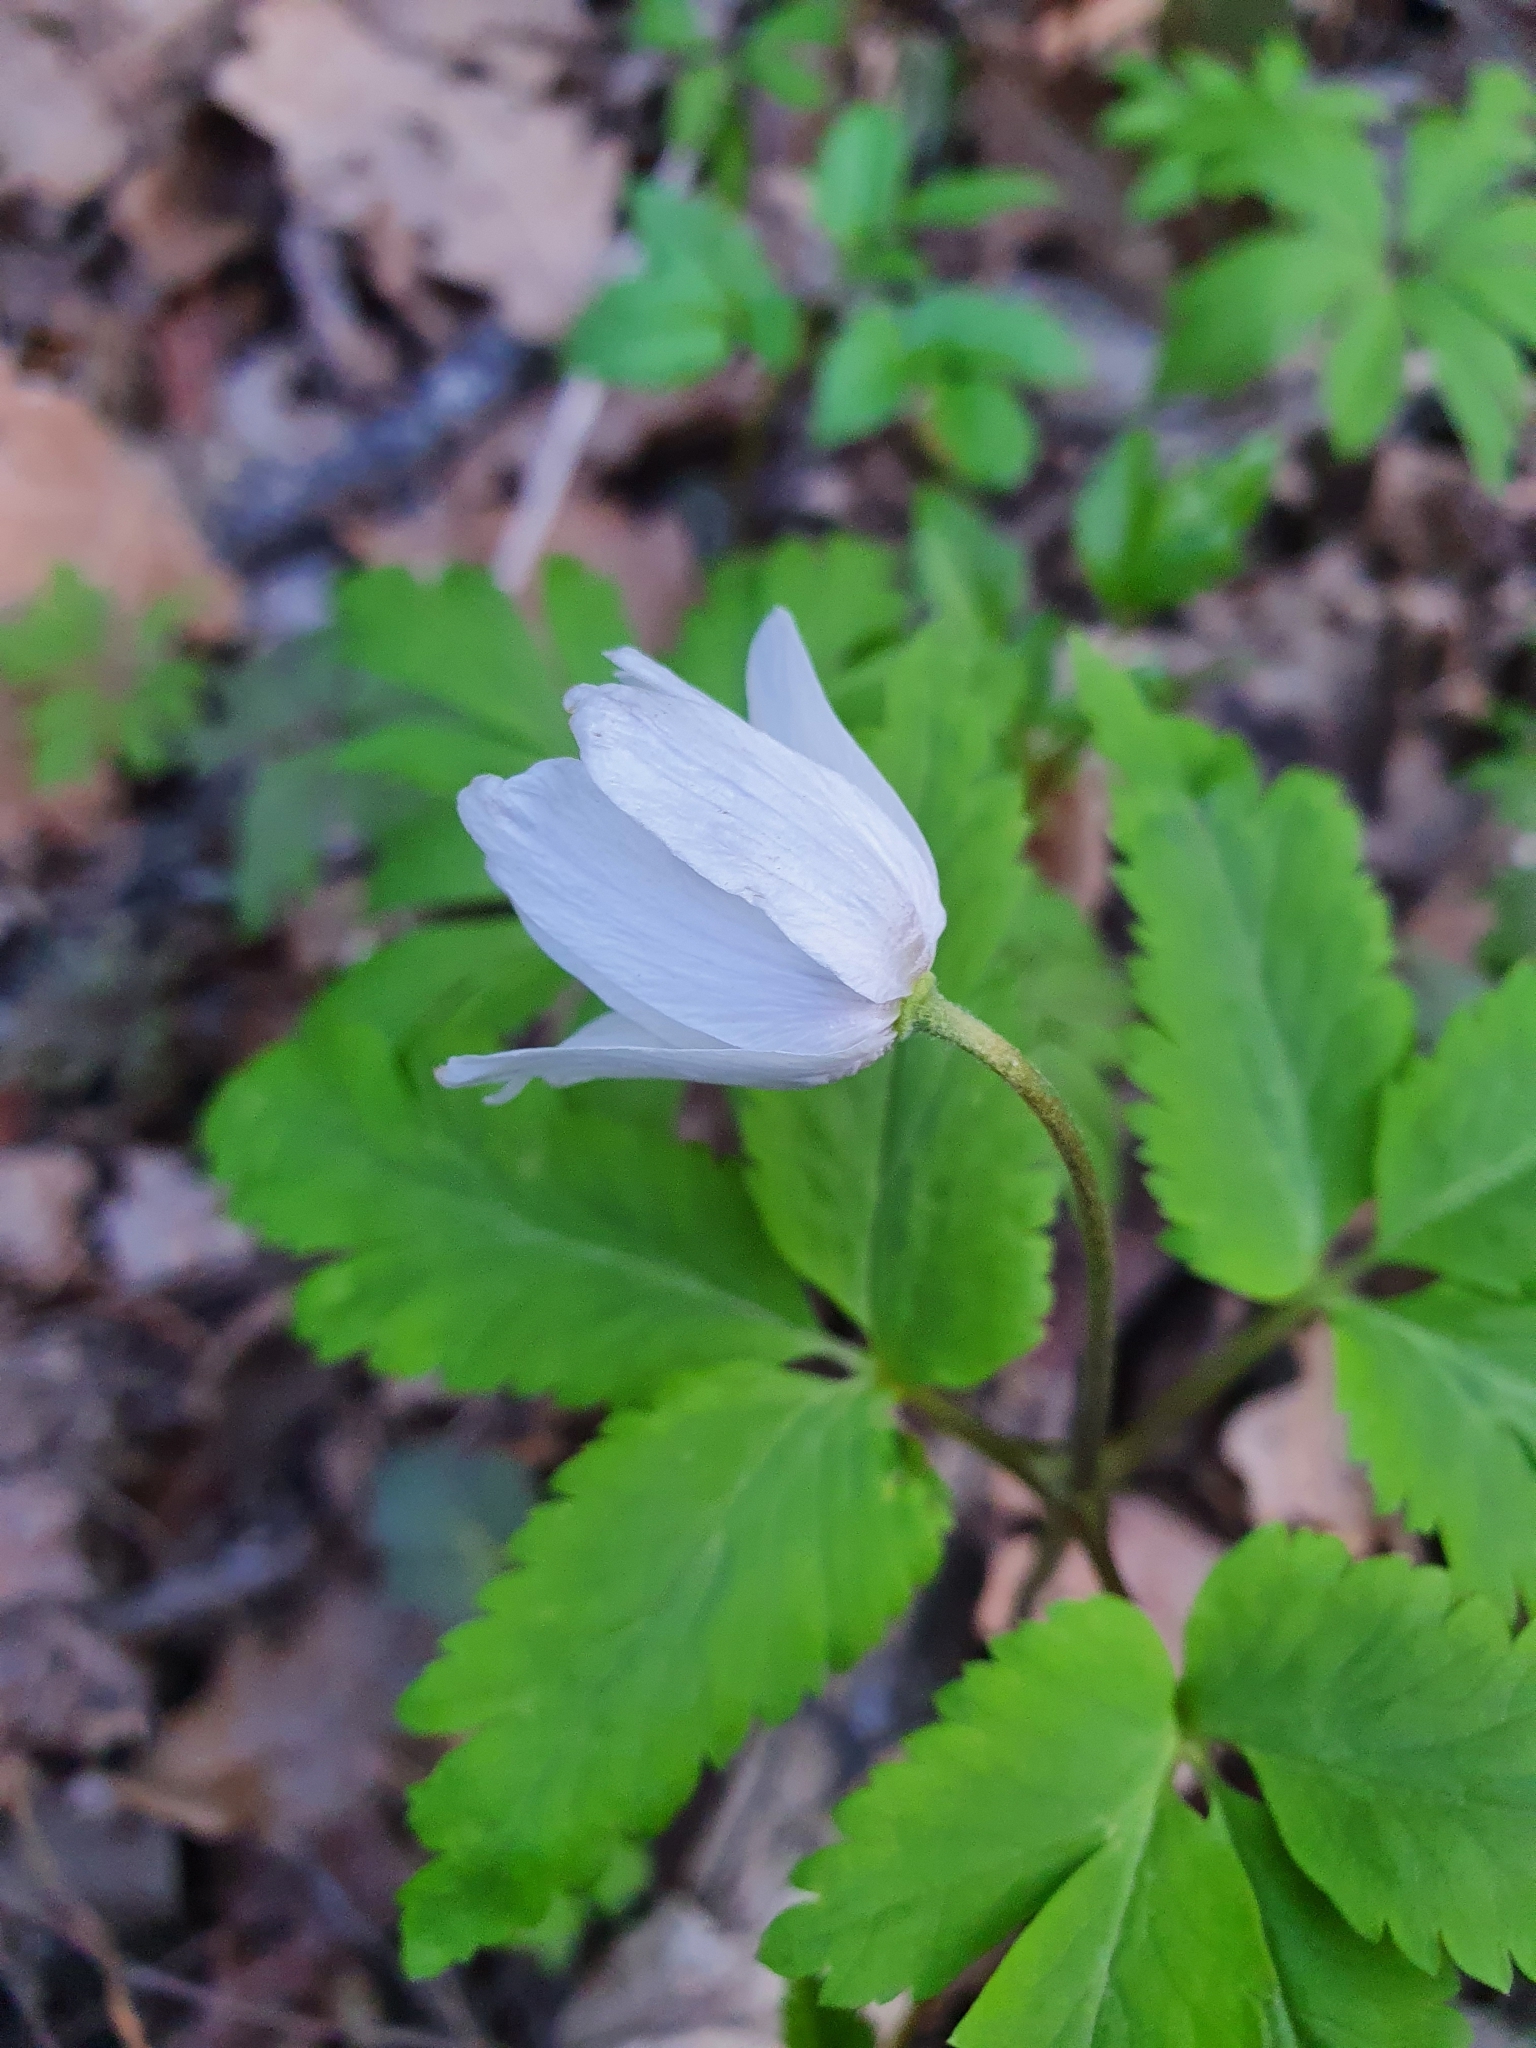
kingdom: Plantae
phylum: Tracheophyta
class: Magnoliopsida
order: Ranunculales
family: Ranunculaceae
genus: Anemone
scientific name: Anemone altaica
